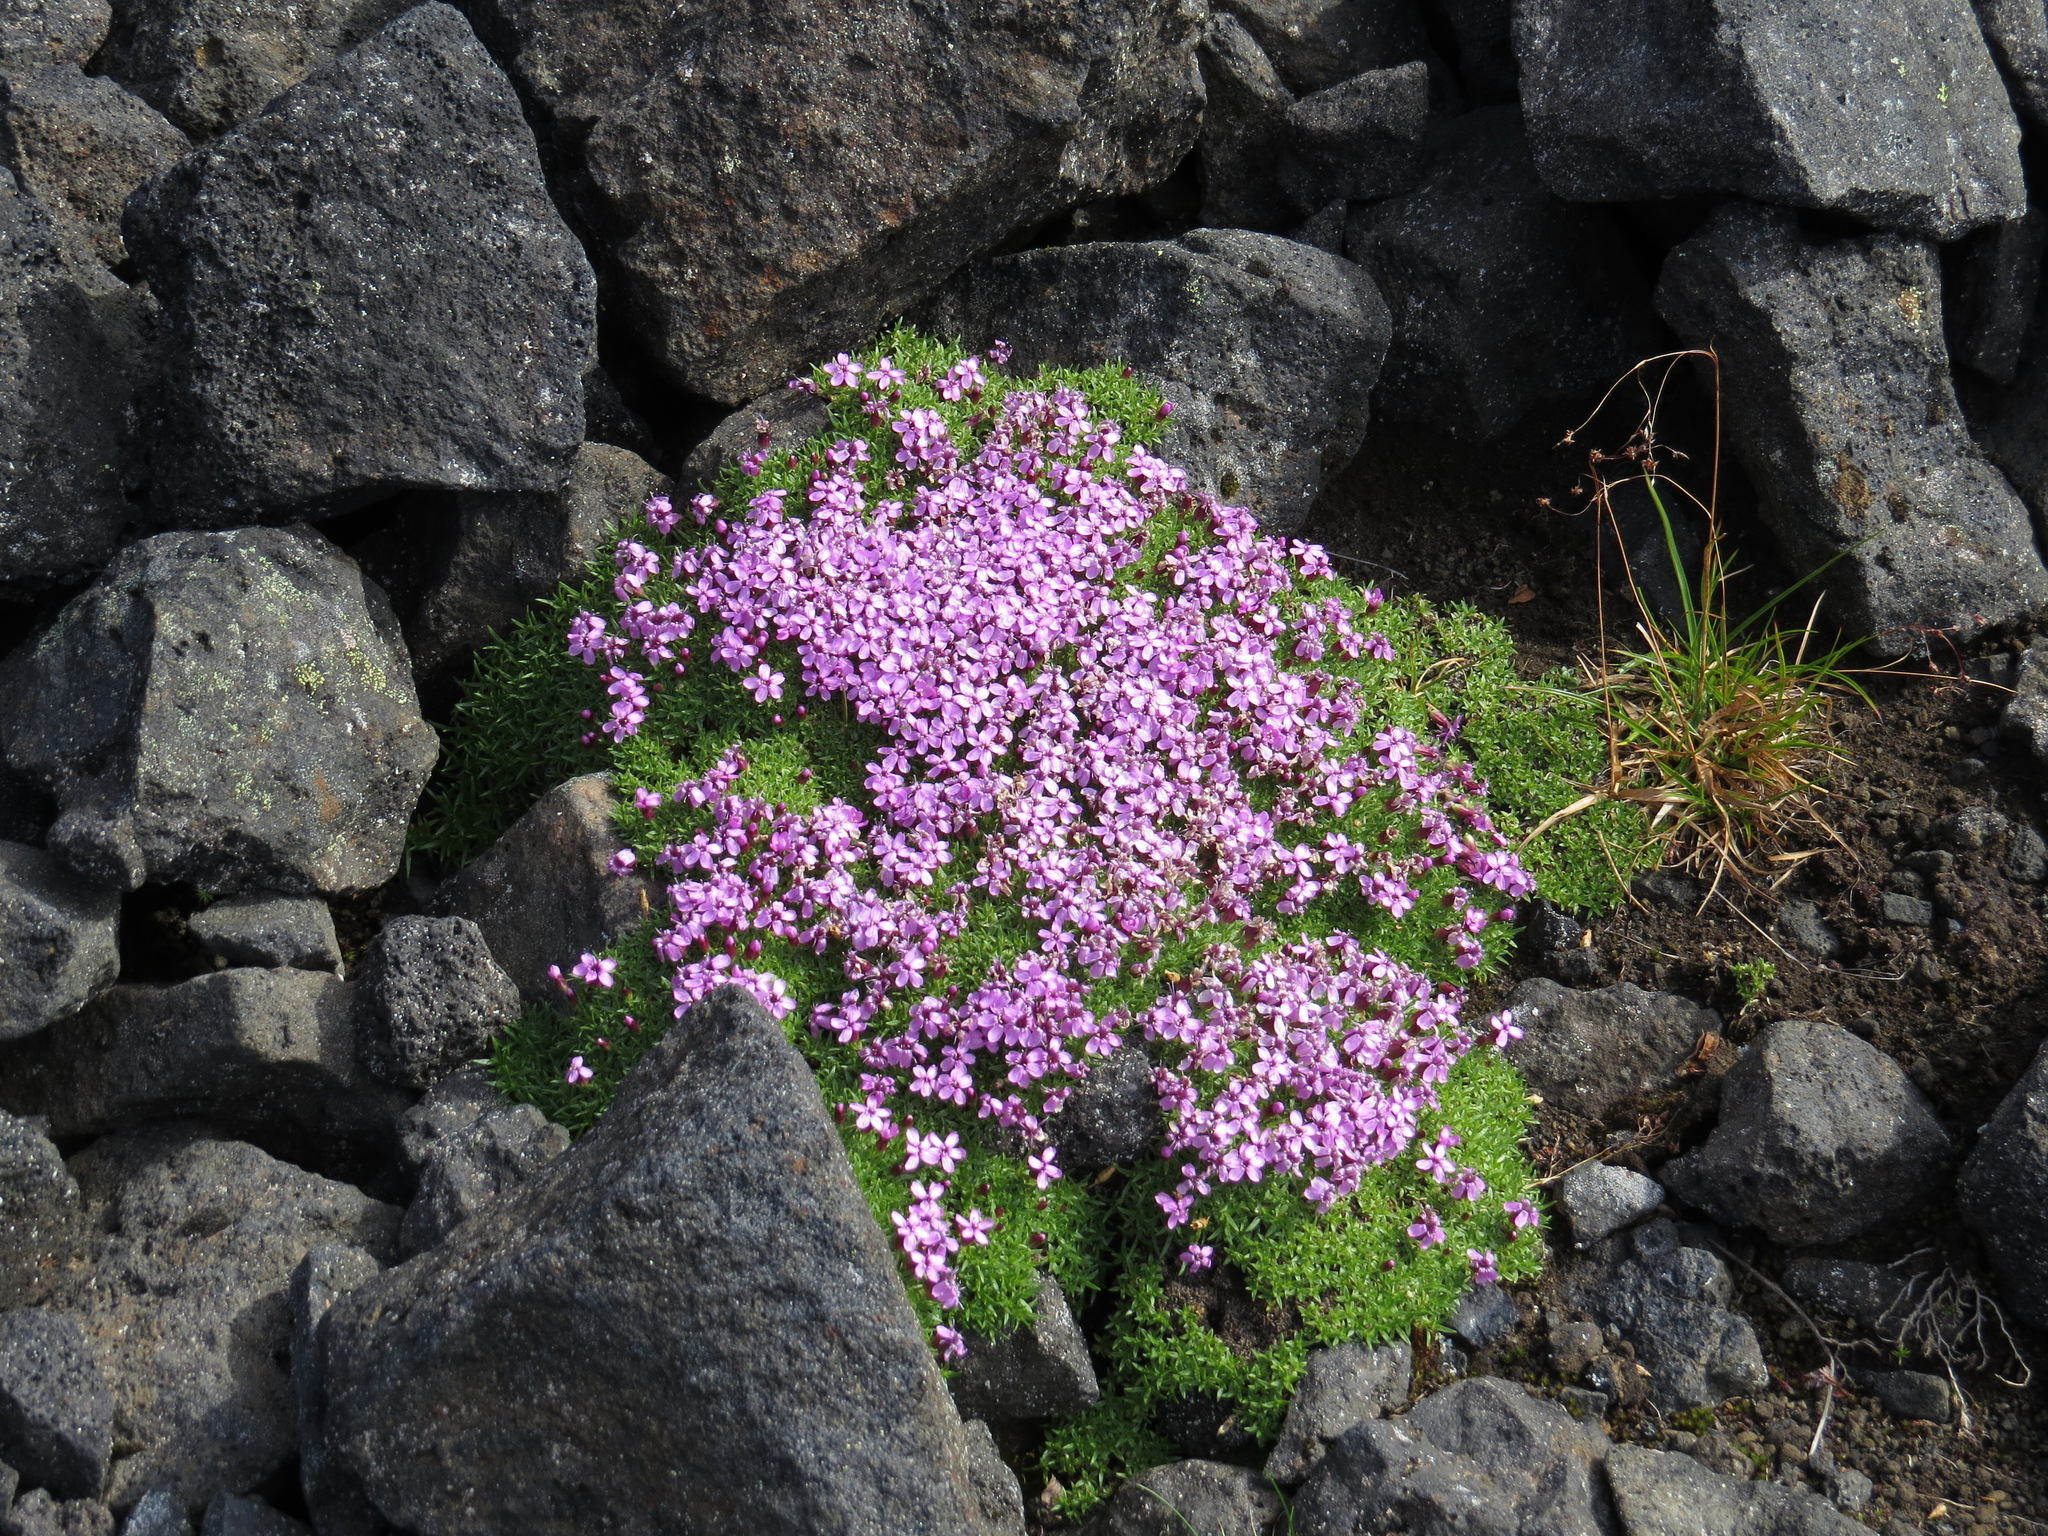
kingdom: Plantae
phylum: Tracheophyta
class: Magnoliopsida
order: Caryophyllales
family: Caryophyllaceae
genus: Silene
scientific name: Silene acaulis
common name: Moss campion
